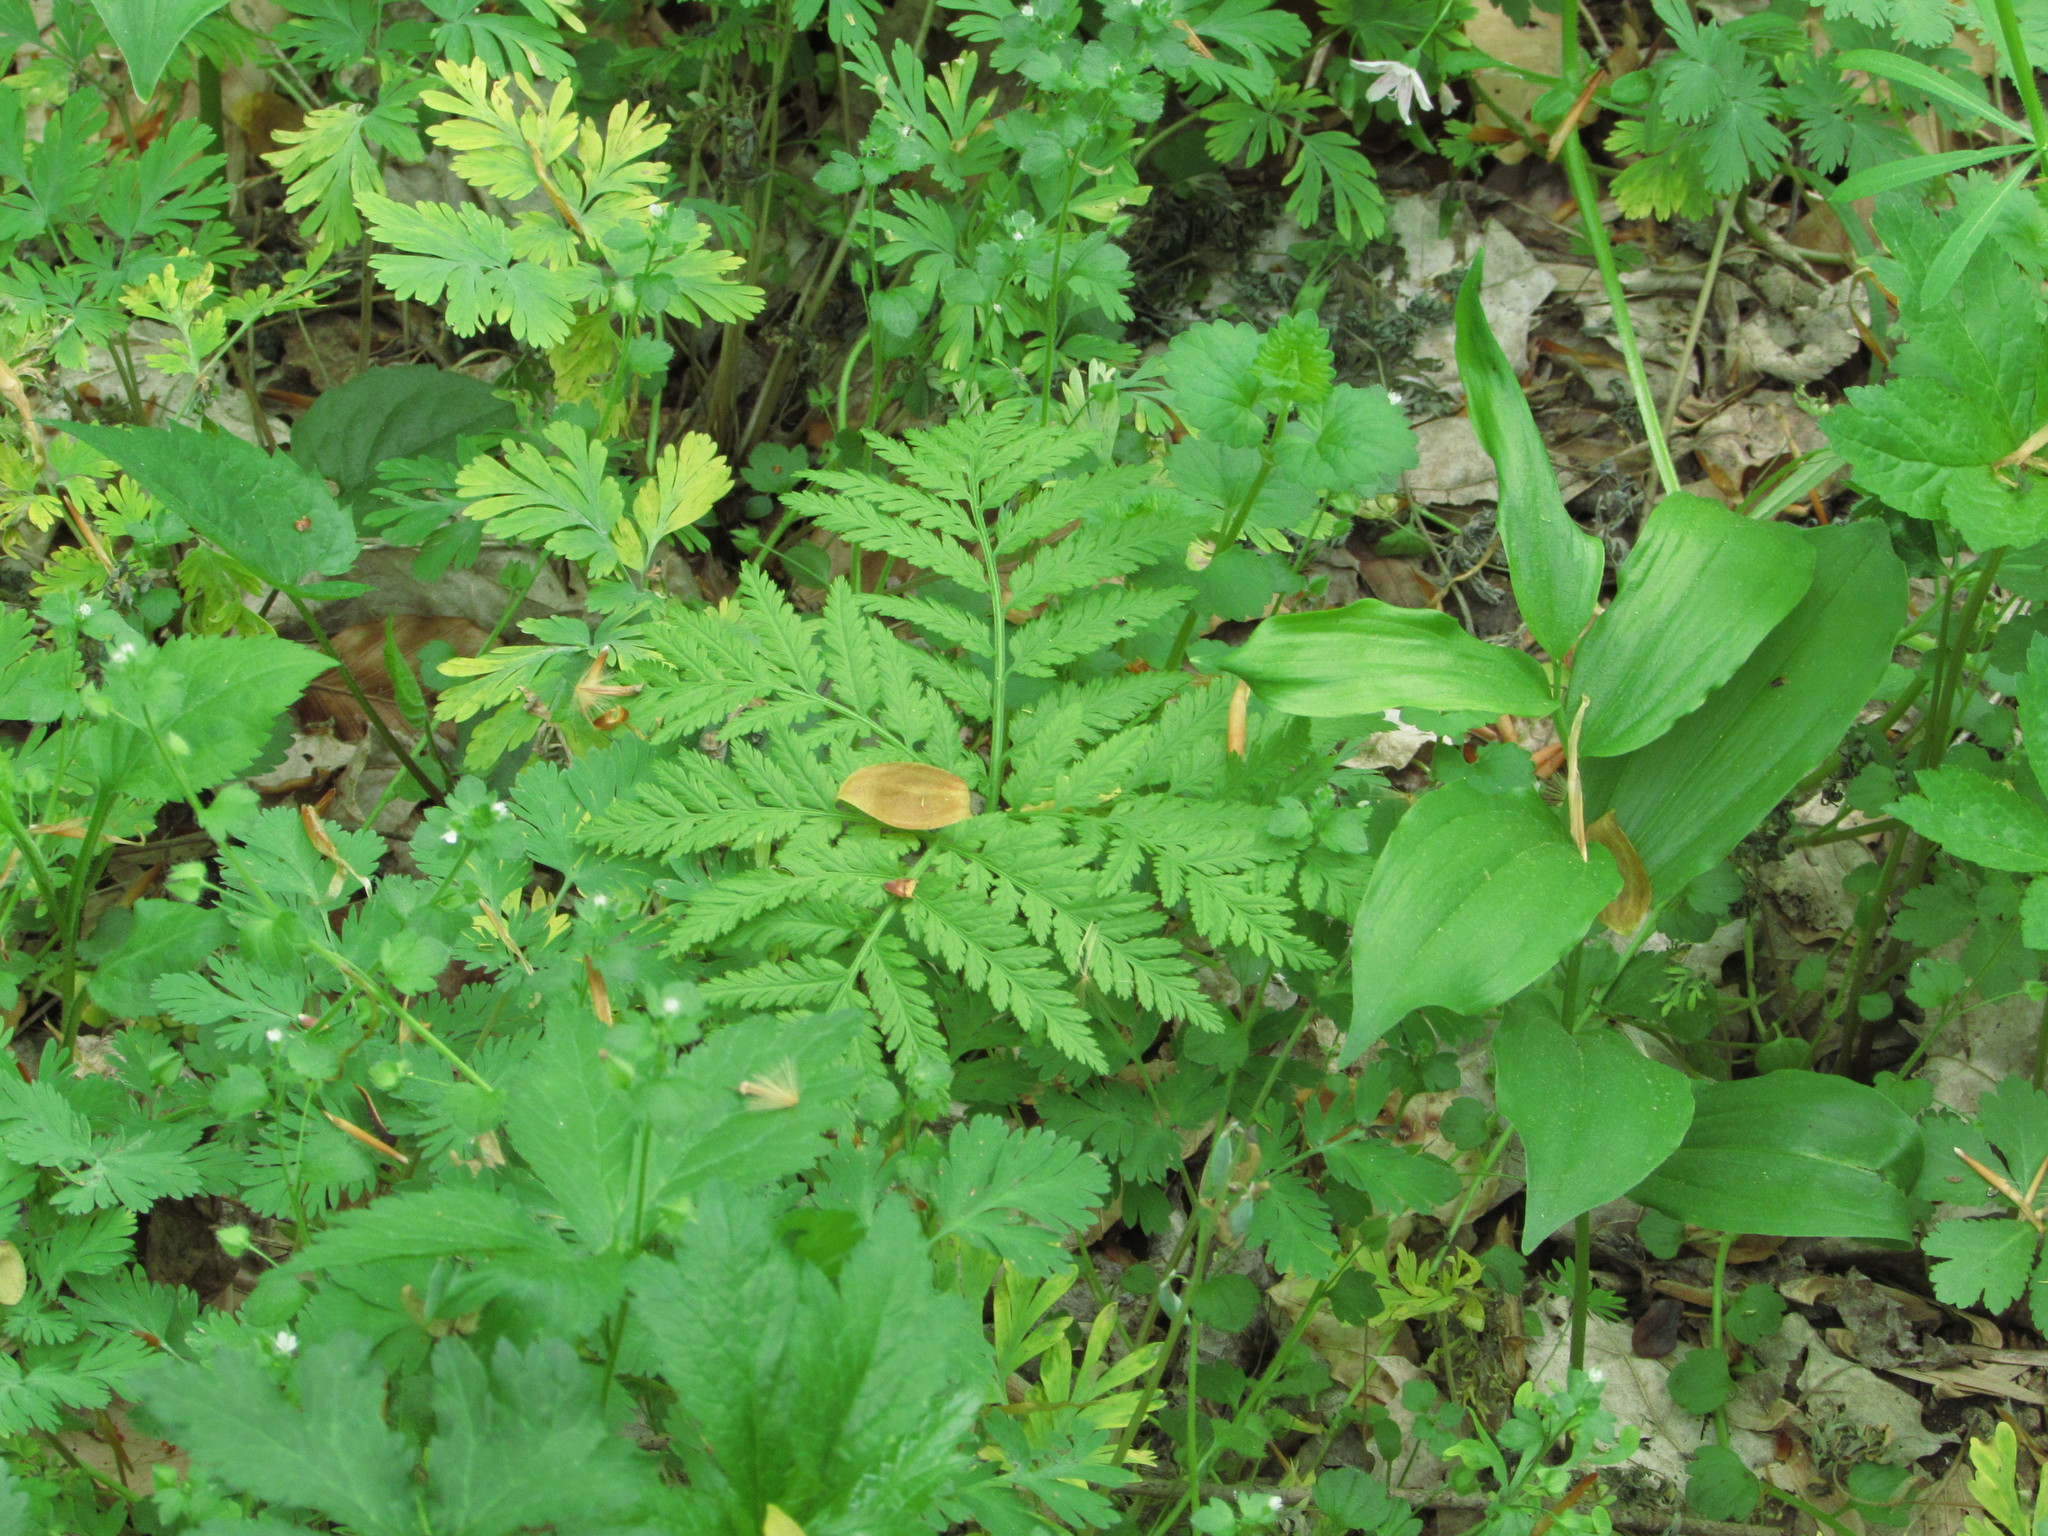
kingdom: Plantae
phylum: Tracheophyta
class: Polypodiopsida
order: Ophioglossales
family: Ophioglossaceae
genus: Botrypus
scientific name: Botrypus virginianus
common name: Common grapefern
